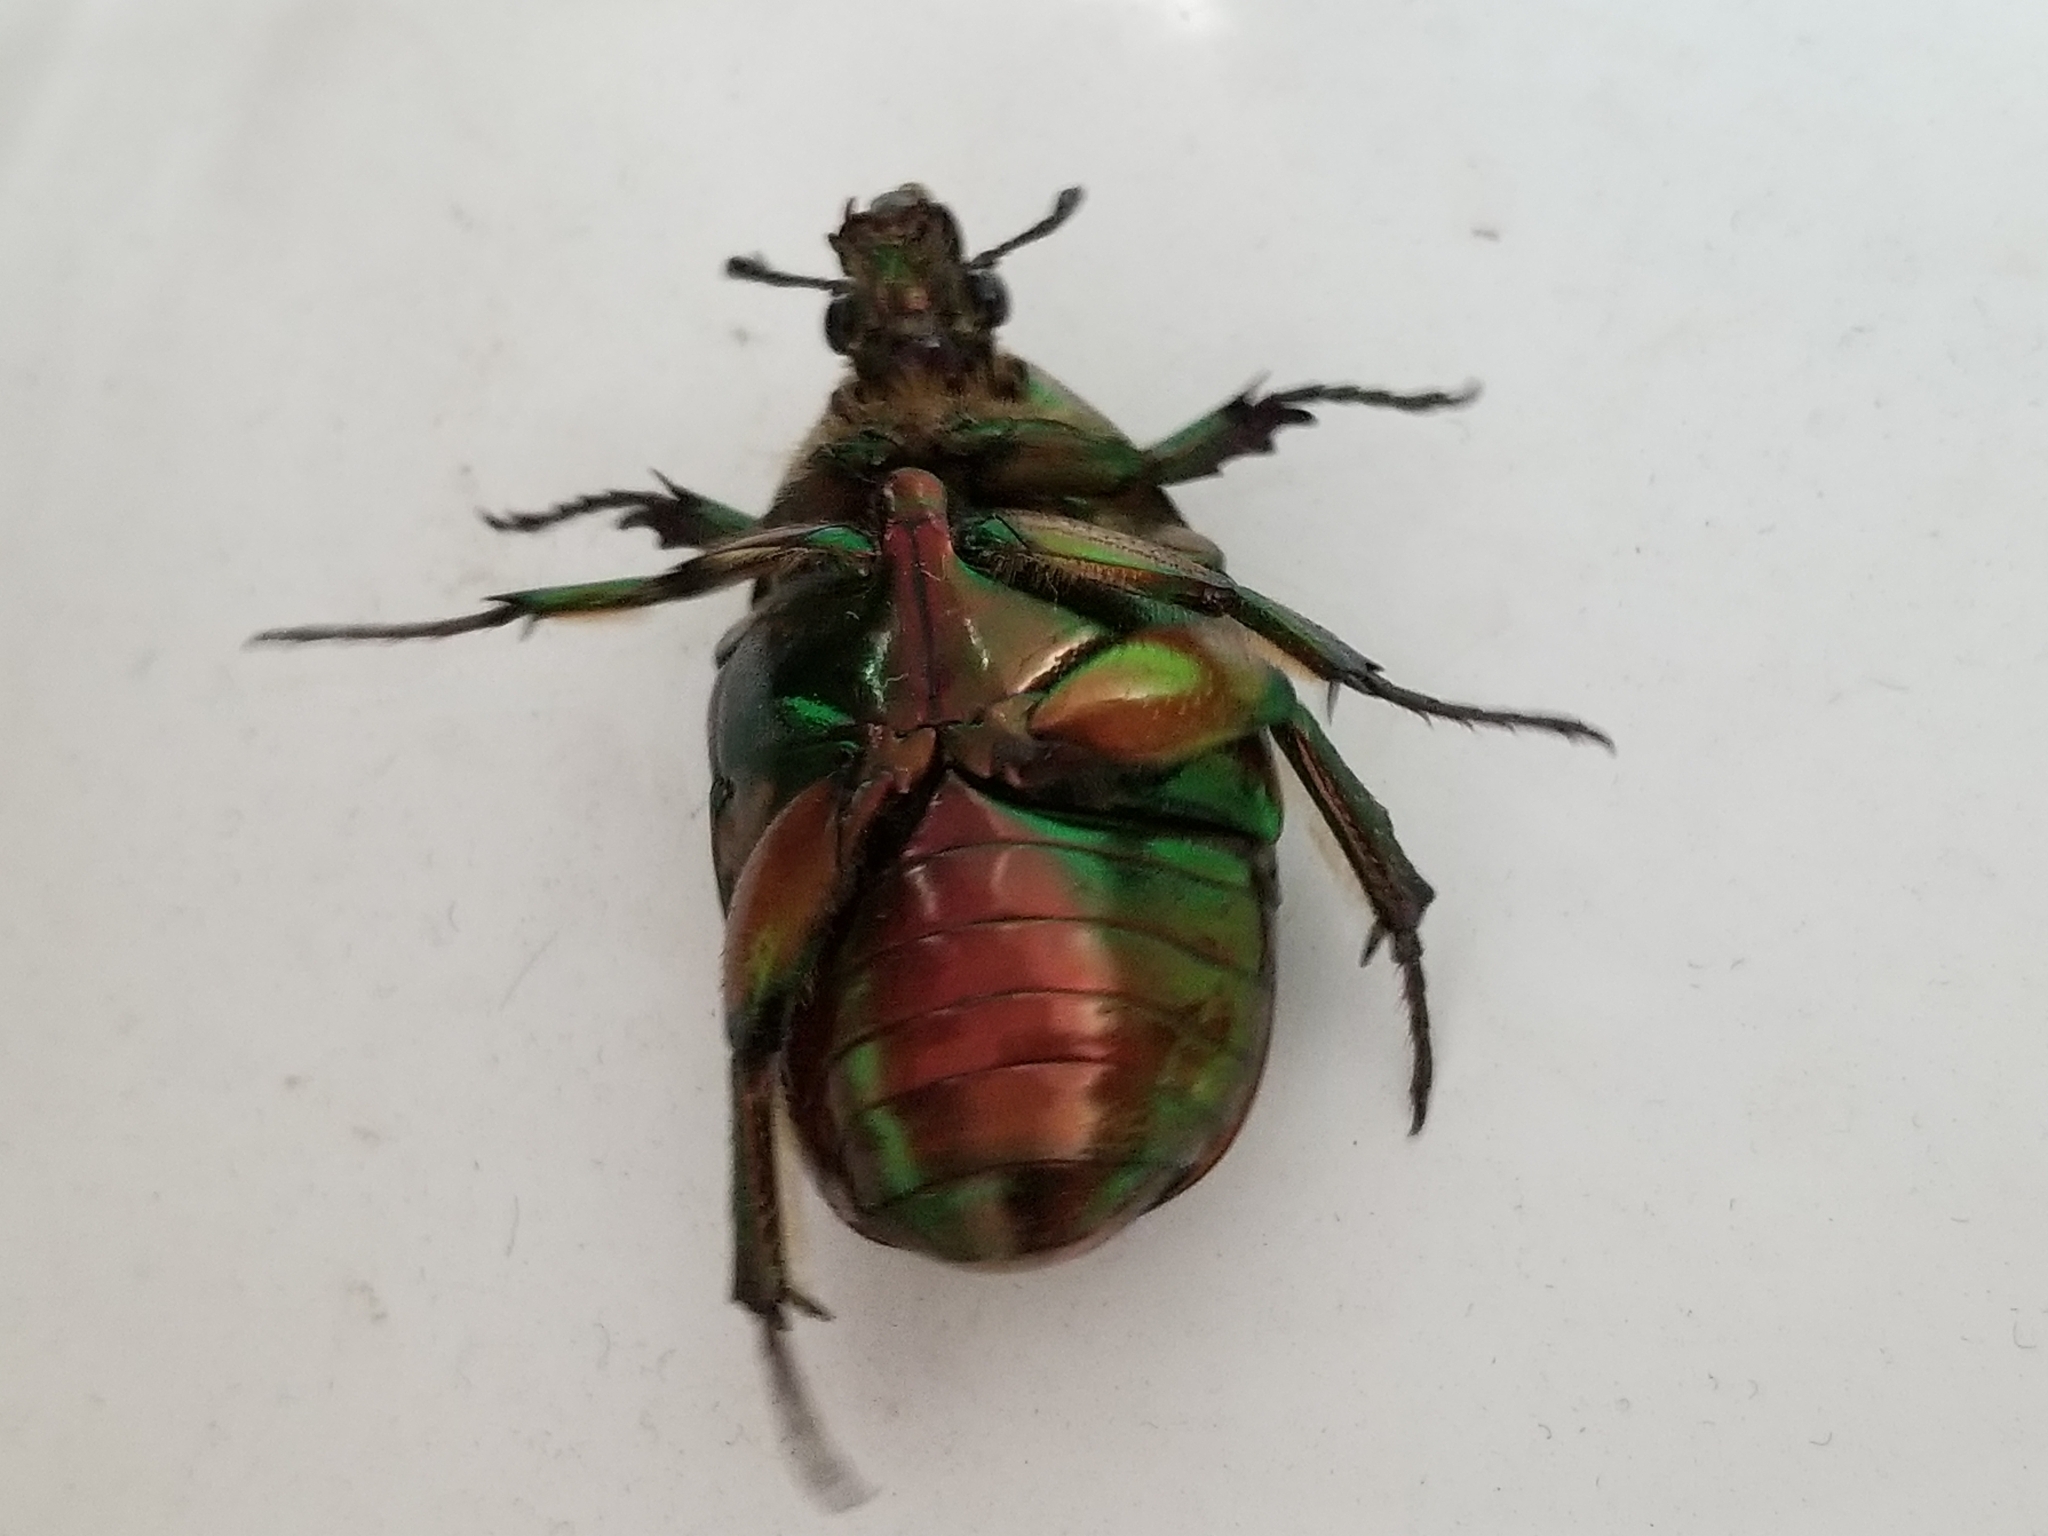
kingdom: Animalia
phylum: Arthropoda
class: Insecta
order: Coleoptera
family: Scarabaeidae
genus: Cotinis
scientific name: Cotinis nitida
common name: Common green june beetle
